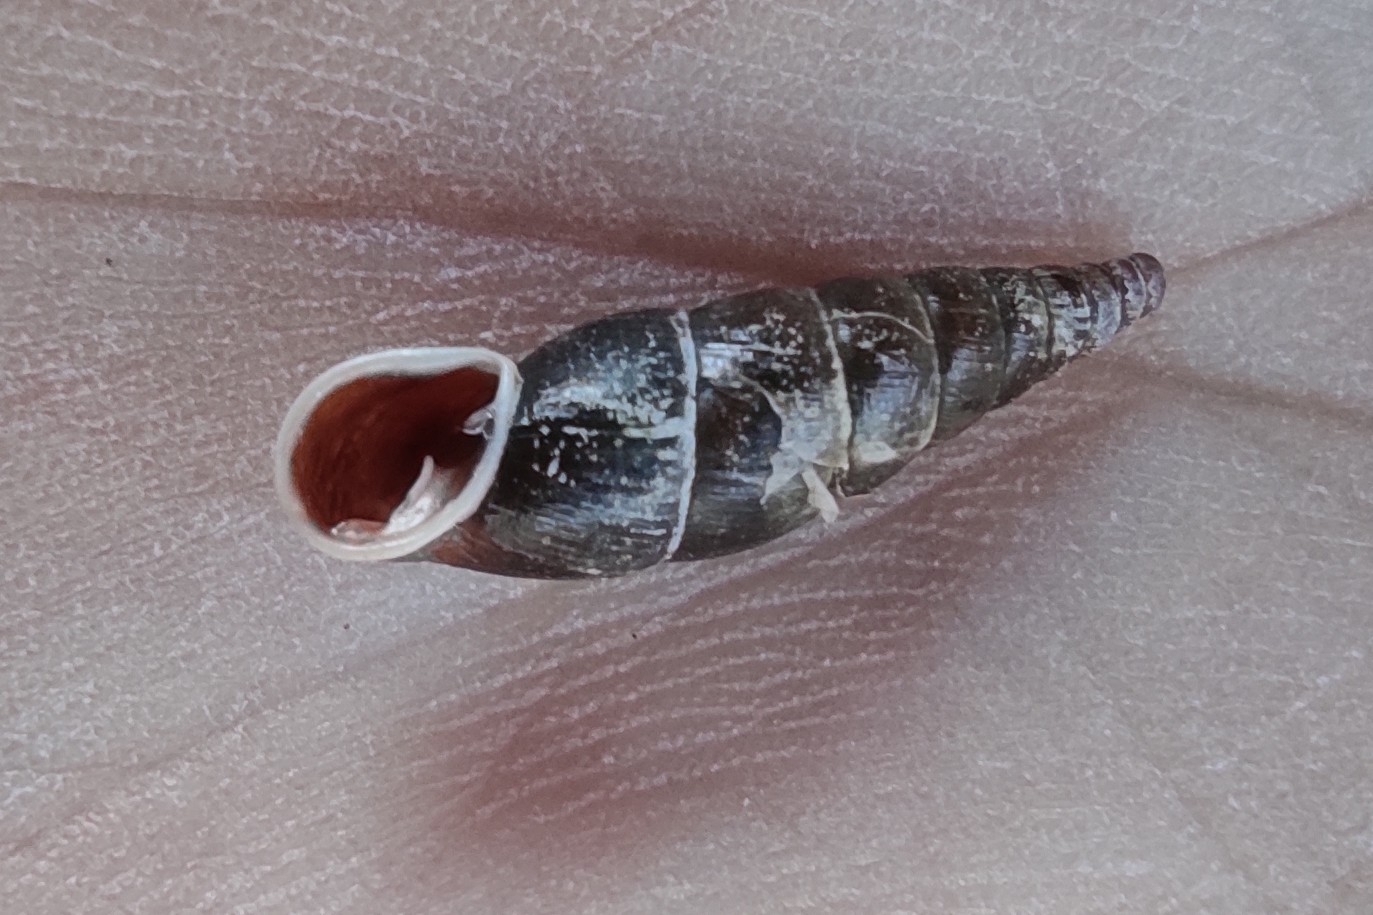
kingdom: Animalia
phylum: Mollusca
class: Gastropoda
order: Stylommatophora
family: Clausiliidae
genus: Cochlodina
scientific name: Cochlodina laminata
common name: Plaited door snail
